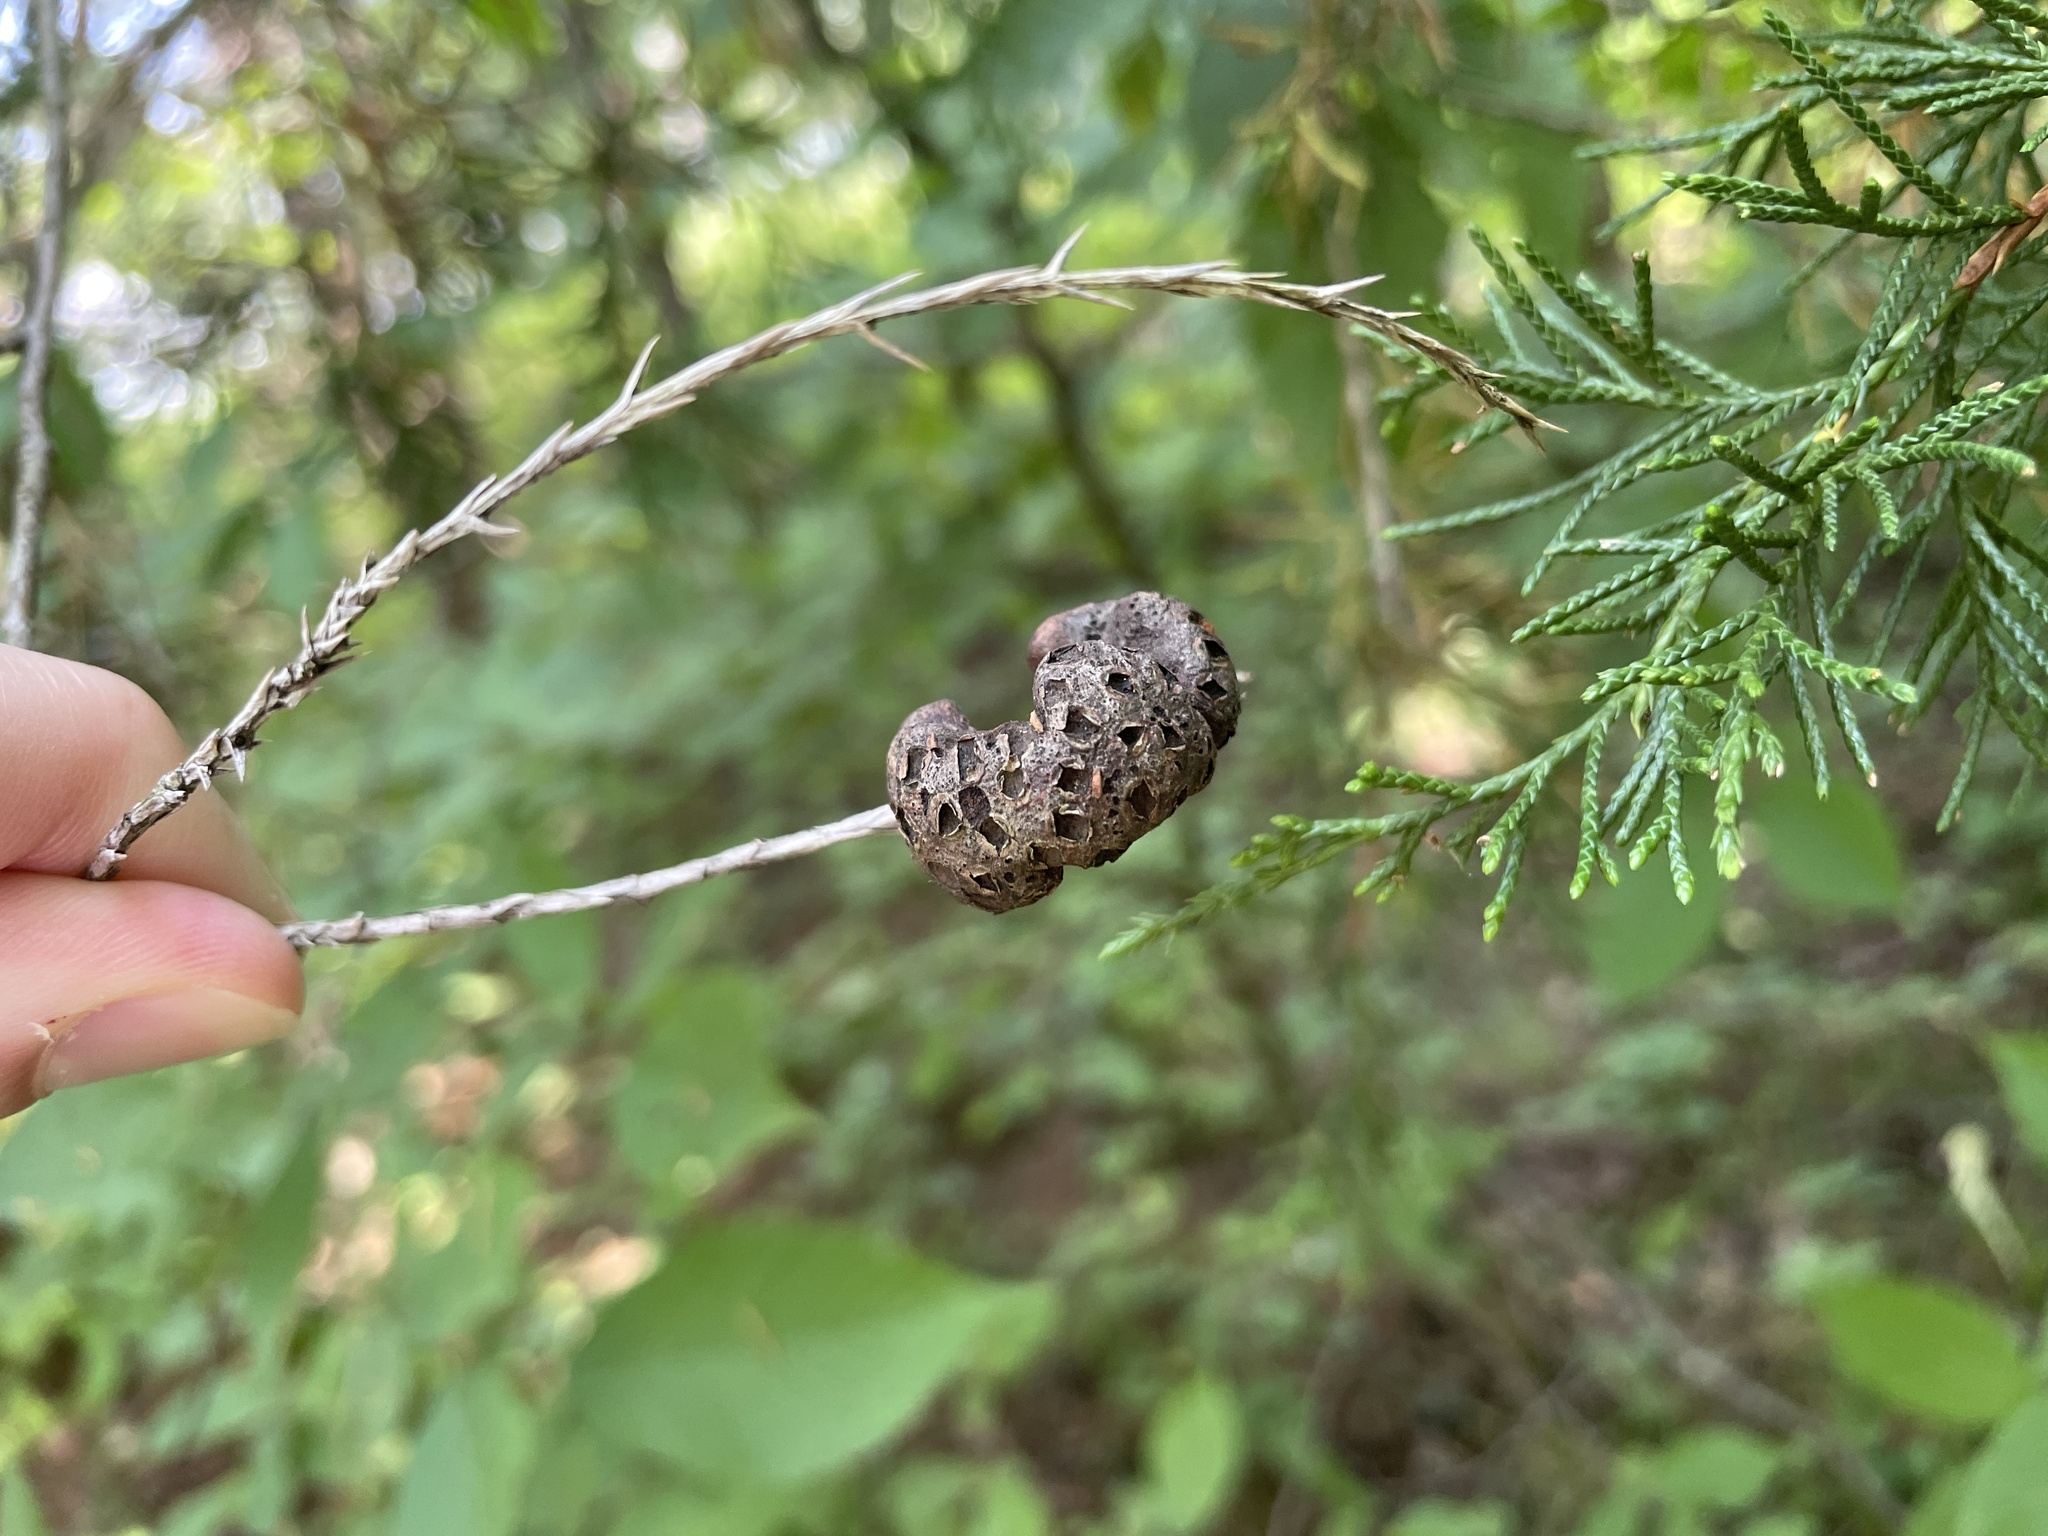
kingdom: Fungi
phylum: Basidiomycota
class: Pucciniomycetes
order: Pucciniales
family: Gymnosporangiaceae
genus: Gymnosporangium
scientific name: Gymnosporangium juniperi-virginianae
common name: Juniper-apple rust
